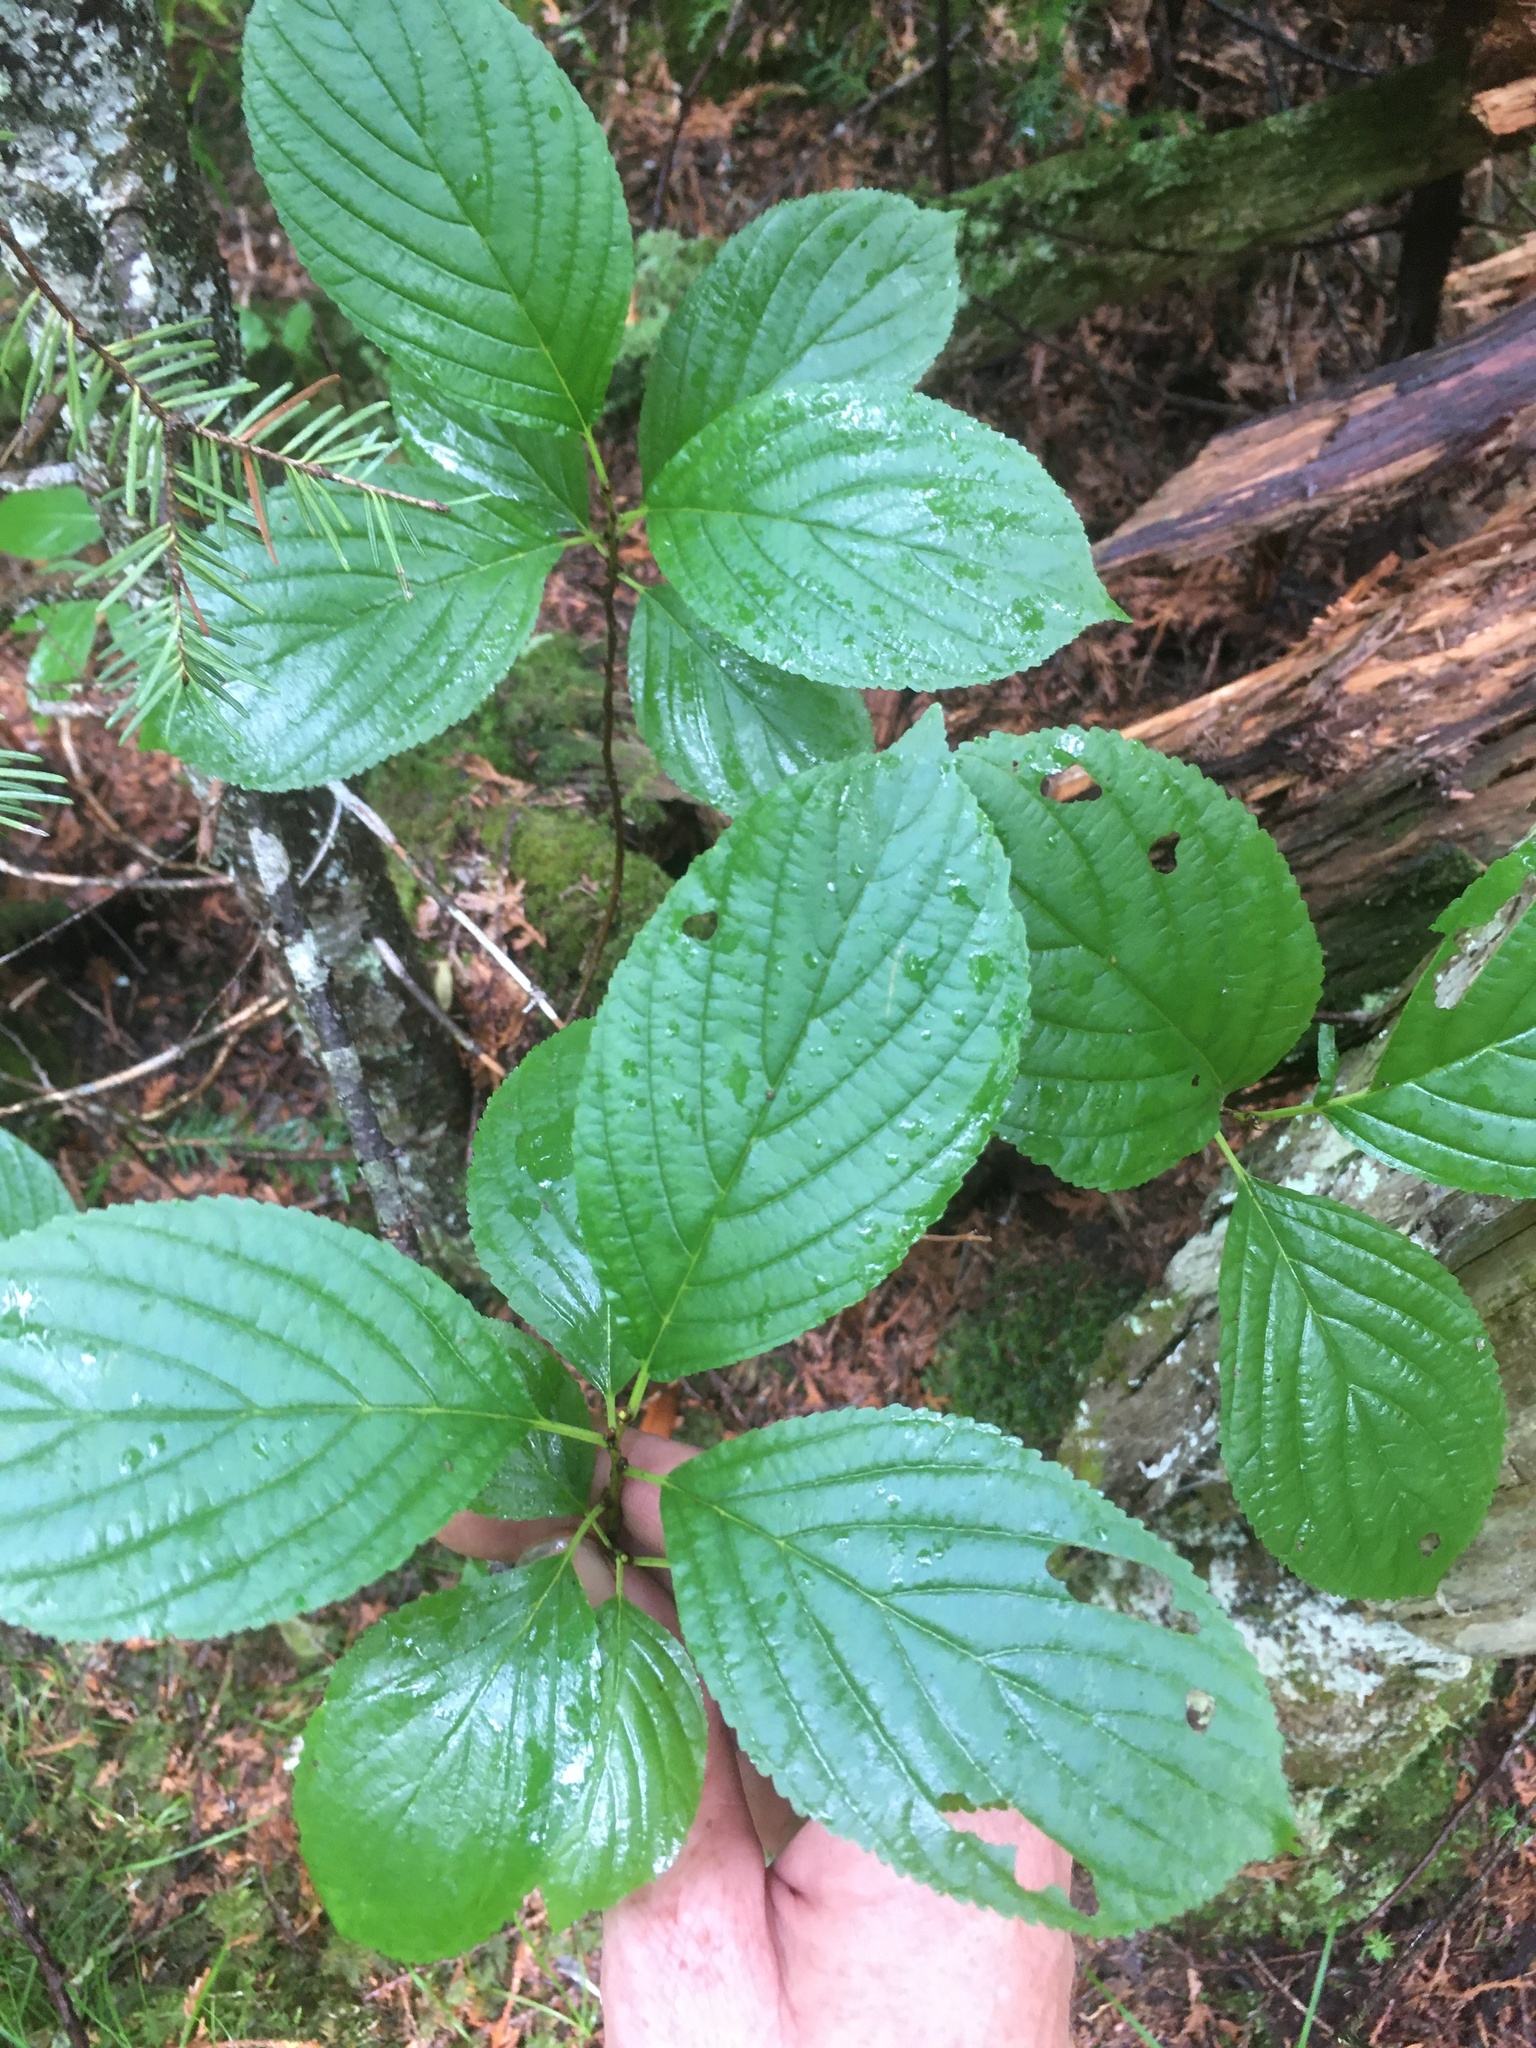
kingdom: Plantae
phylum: Tracheophyta
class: Magnoliopsida
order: Rosales
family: Rhamnaceae
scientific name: Rhamnaceae
